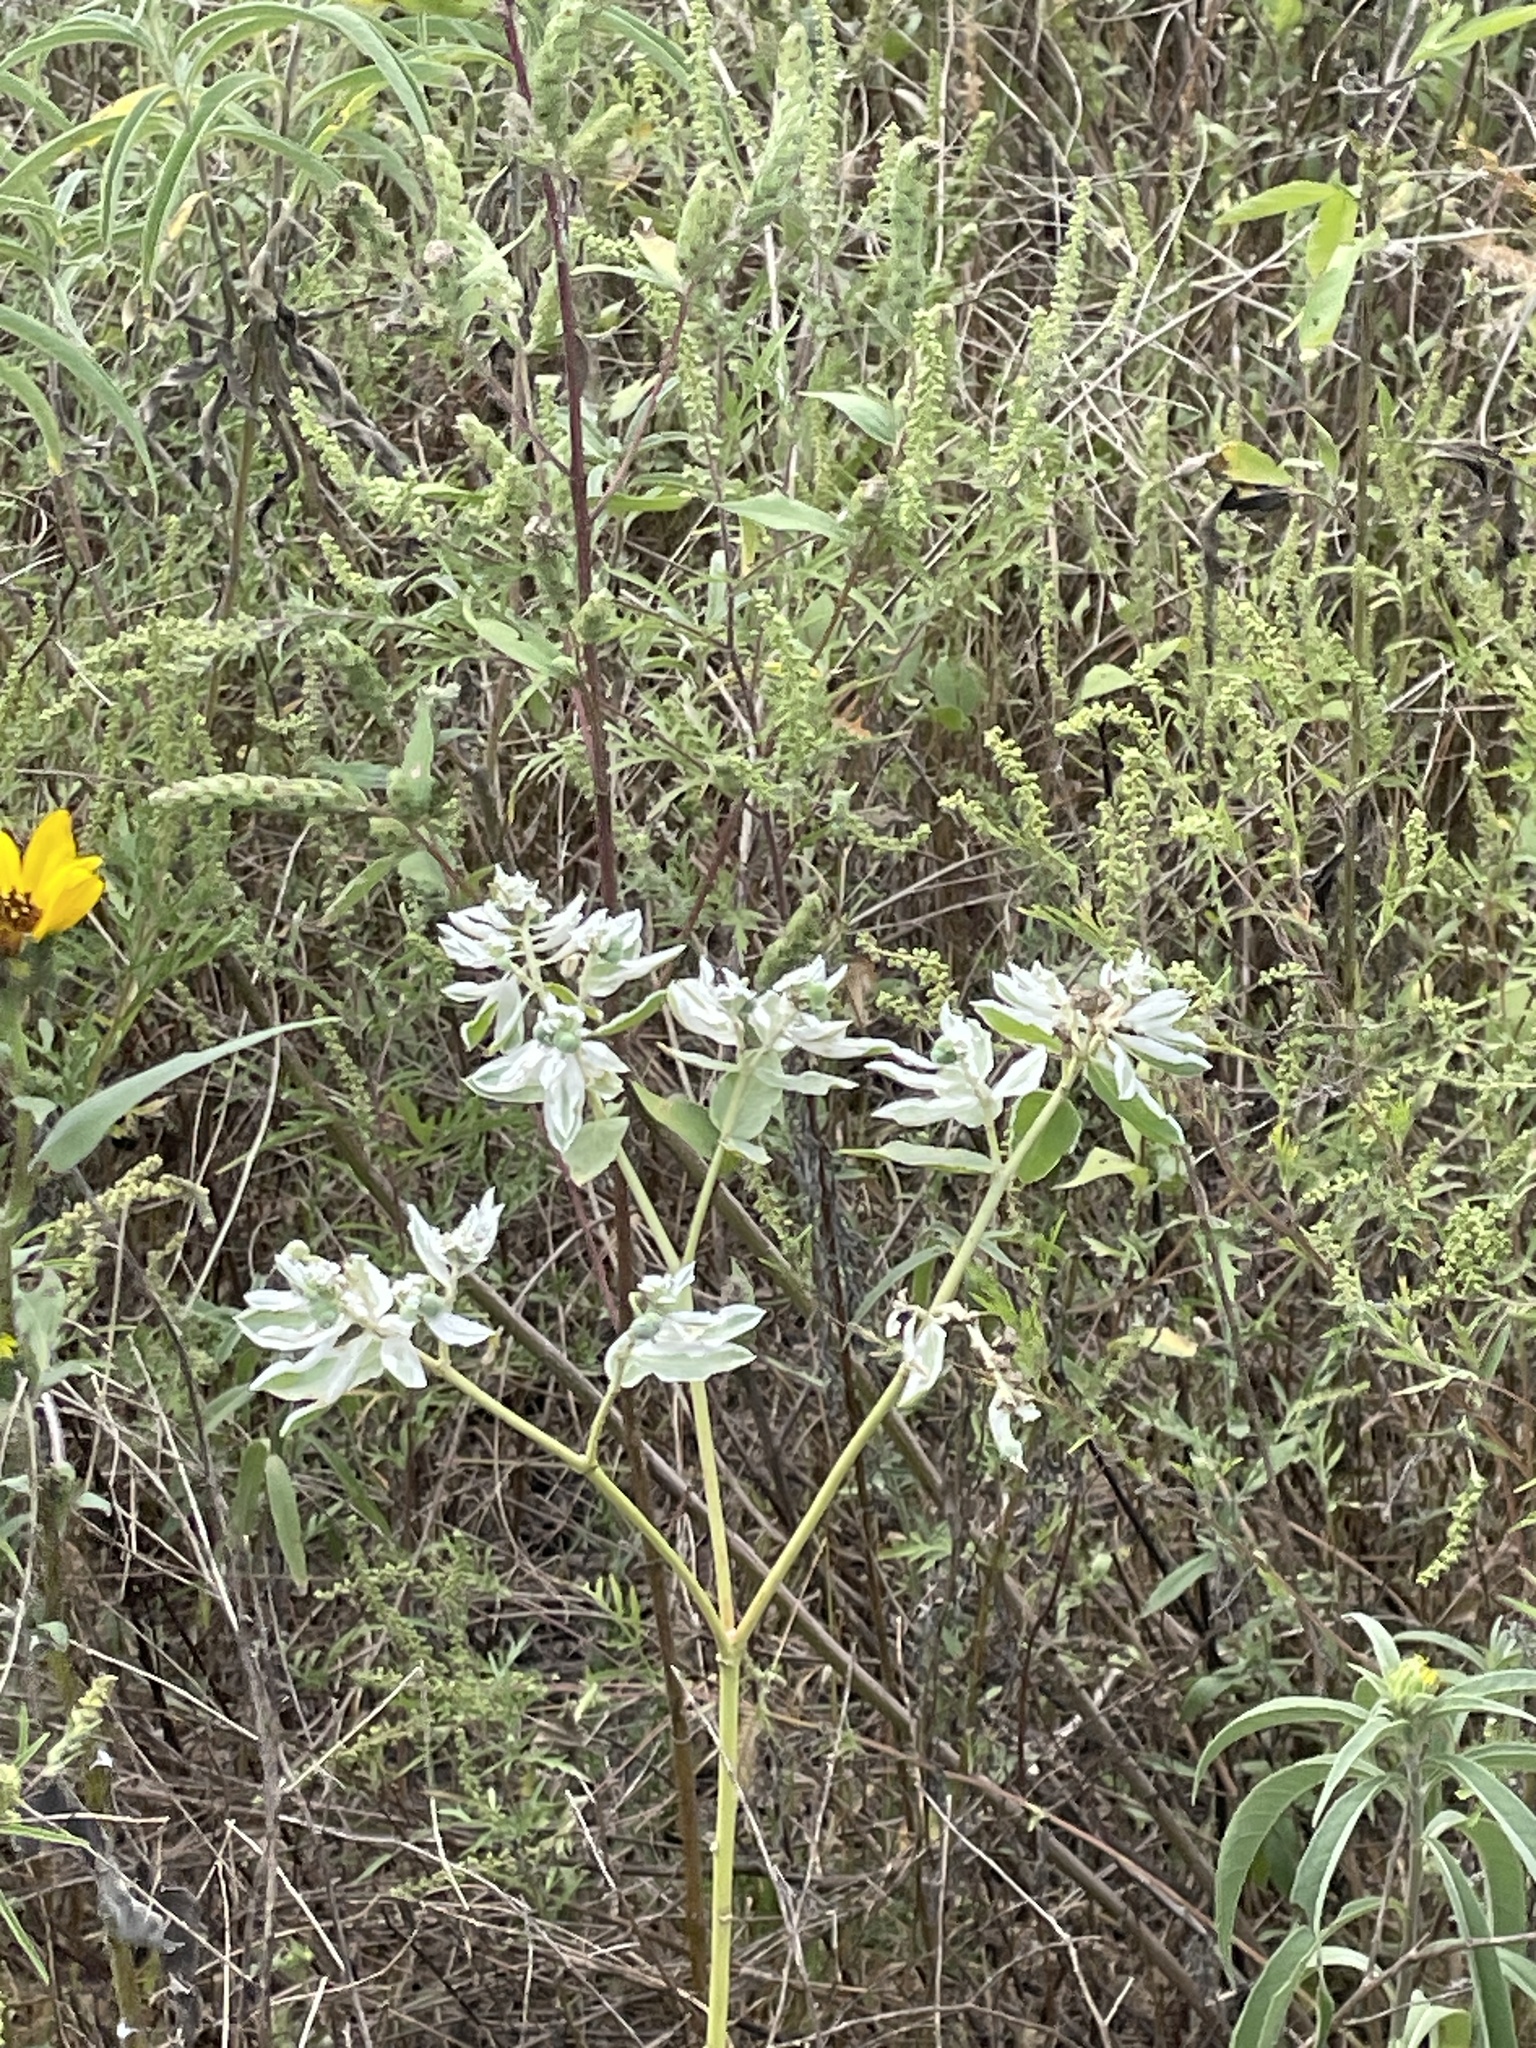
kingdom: Plantae
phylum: Tracheophyta
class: Magnoliopsida
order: Malpighiales
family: Euphorbiaceae
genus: Euphorbia
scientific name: Euphorbia marginata
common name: Ghostweed
